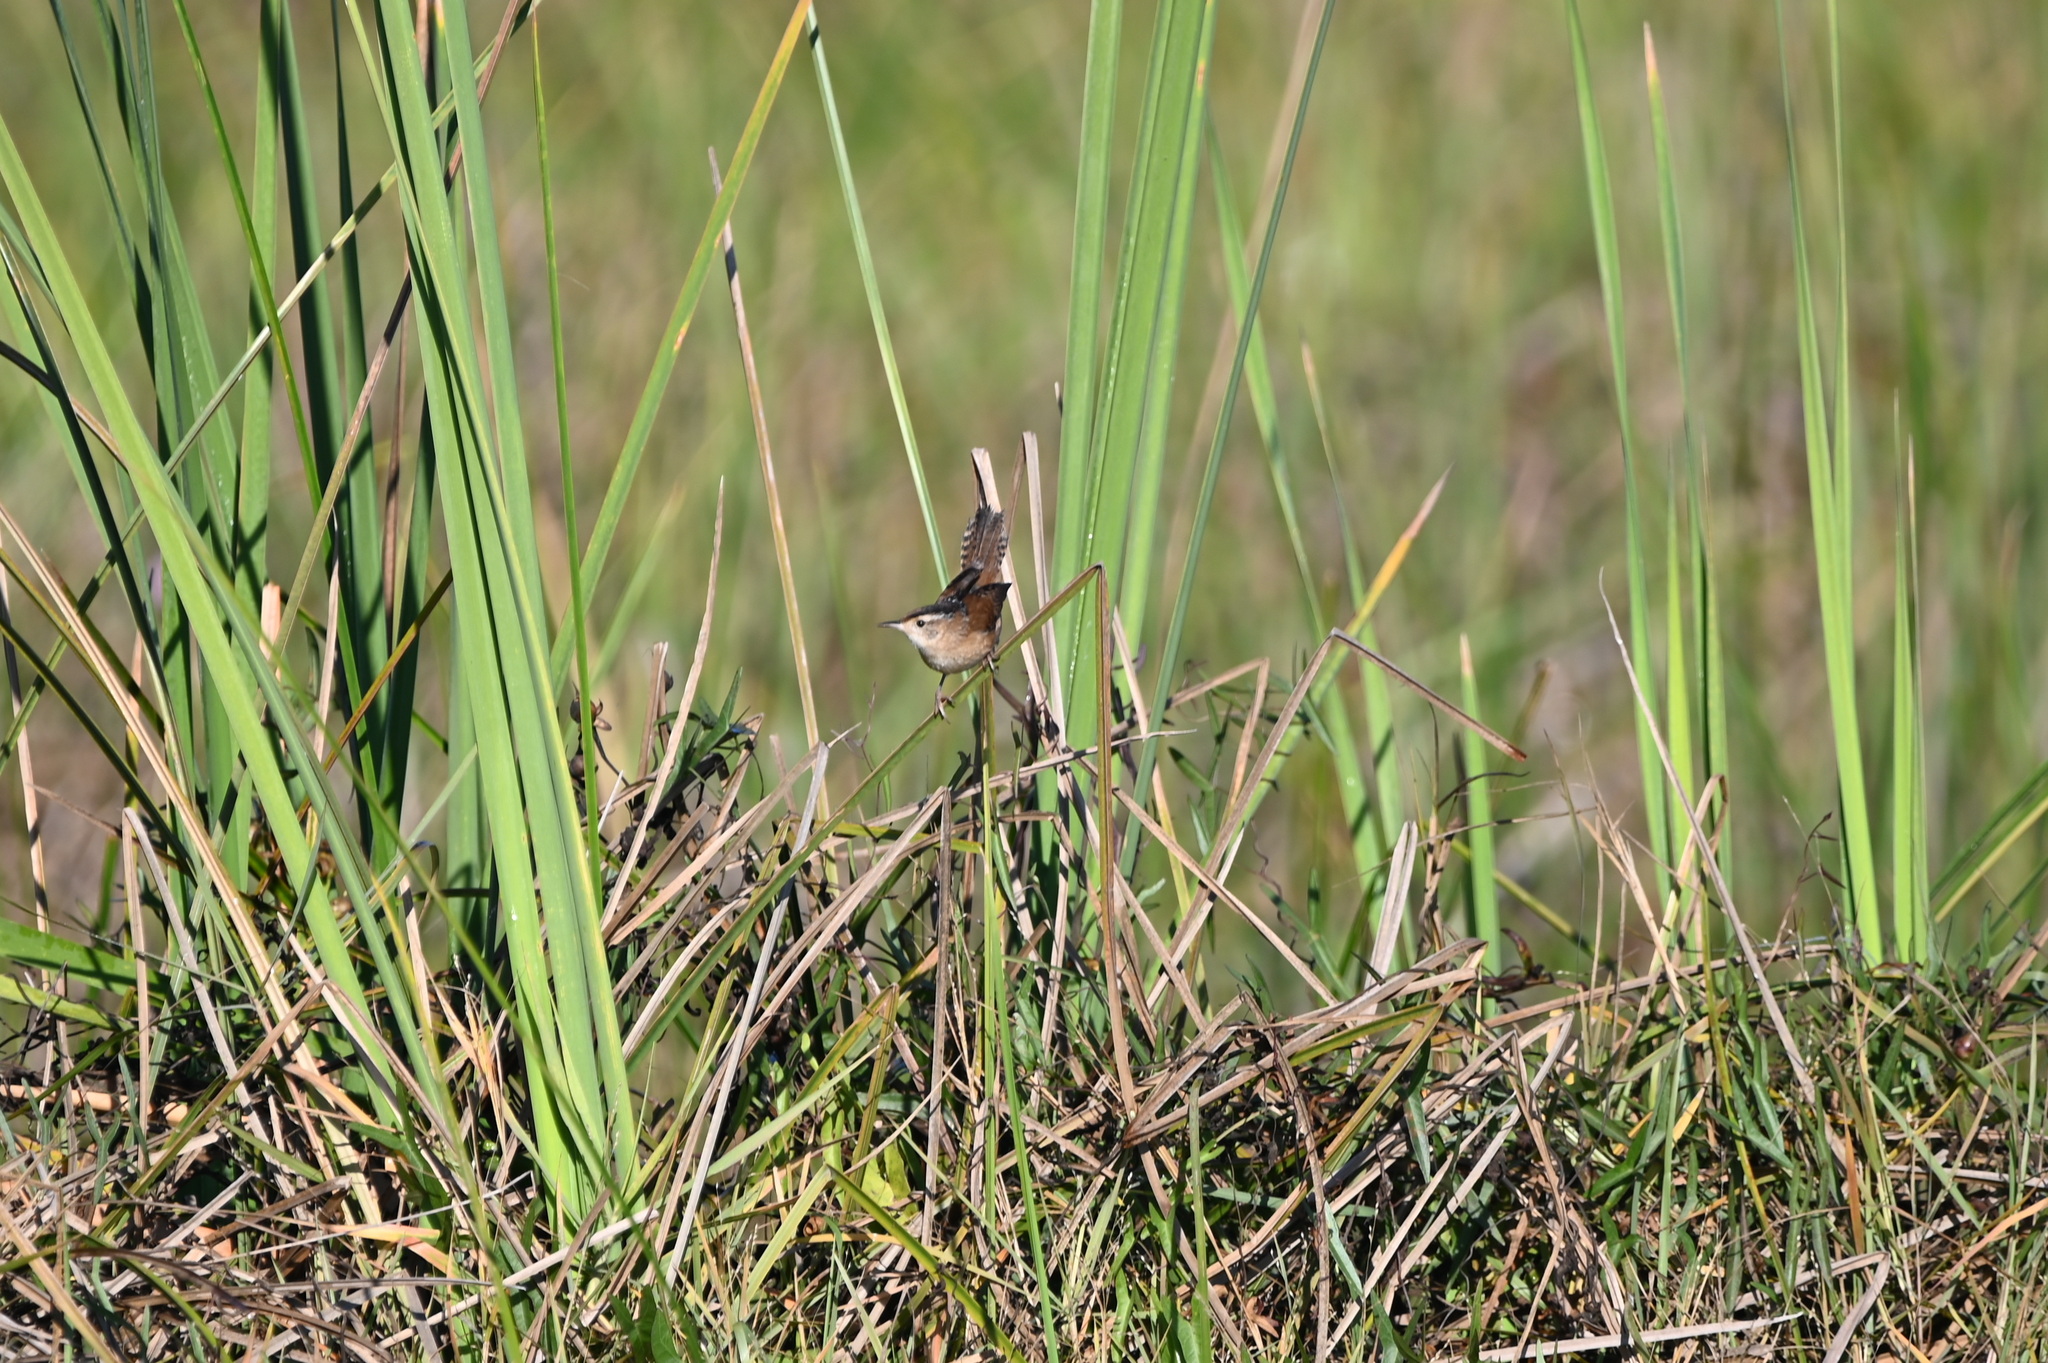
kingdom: Animalia
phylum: Chordata
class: Aves
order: Passeriformes
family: Troglodytidae
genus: Cistothorus
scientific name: Cistothorus palustris
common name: Marsh wren
